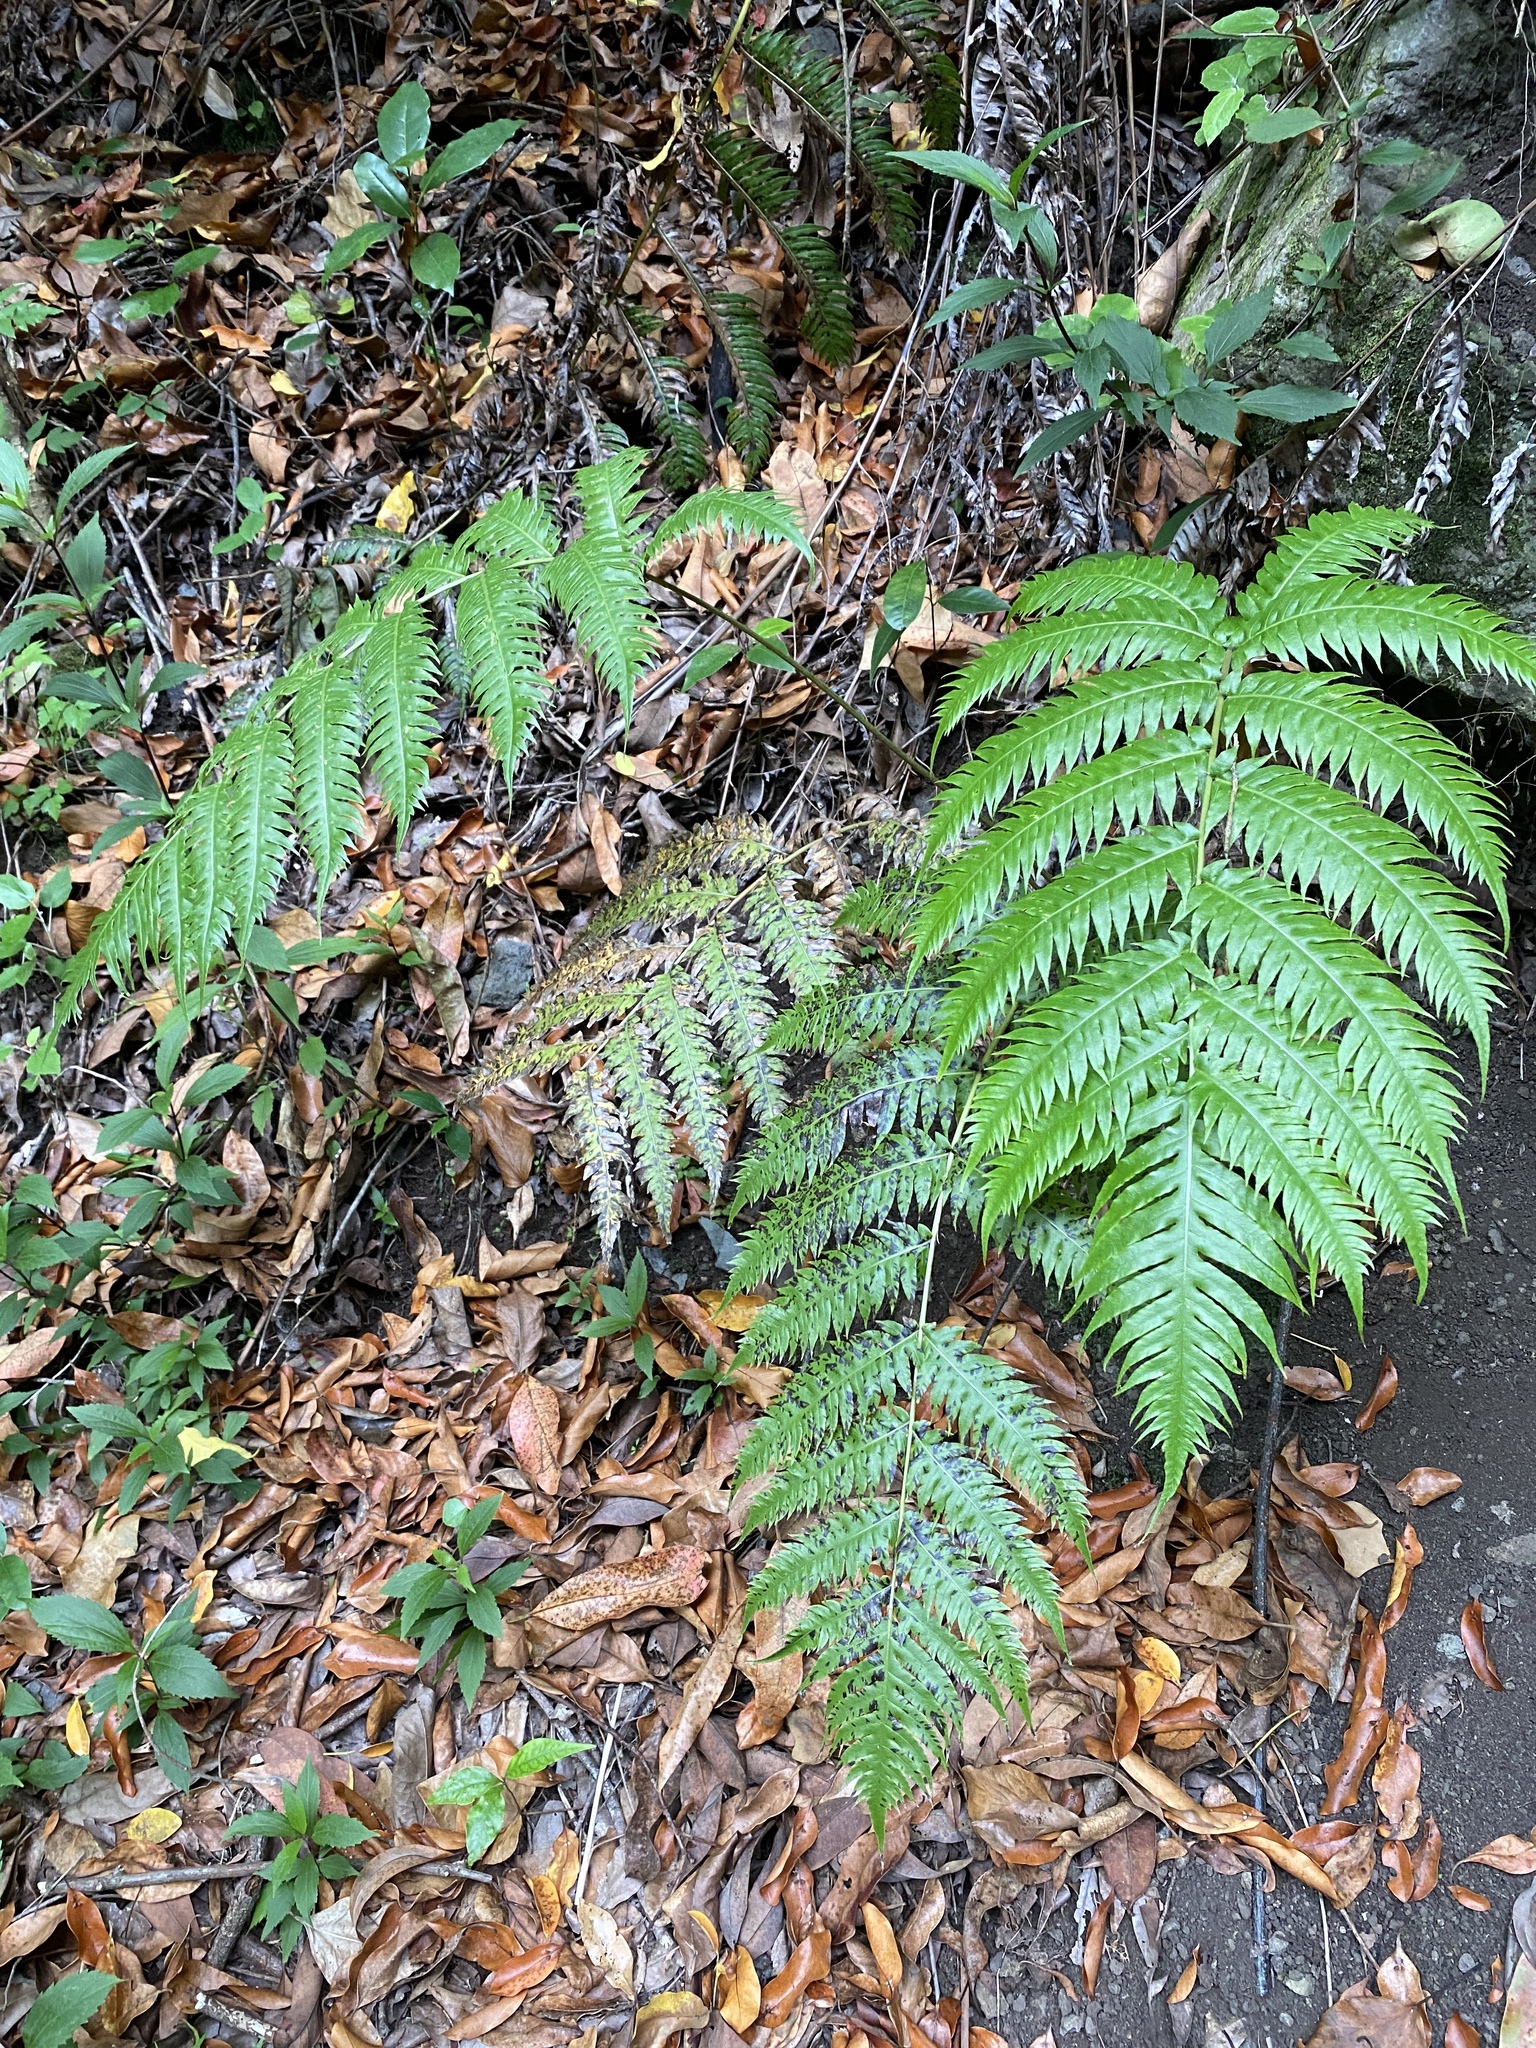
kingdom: Plantae
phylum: Tracheophyta
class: Polypodiopsida
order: Polypodiales
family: Blechnaceae
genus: Woodwardia
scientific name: Woodwardia radicans
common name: Rooting chainfern
